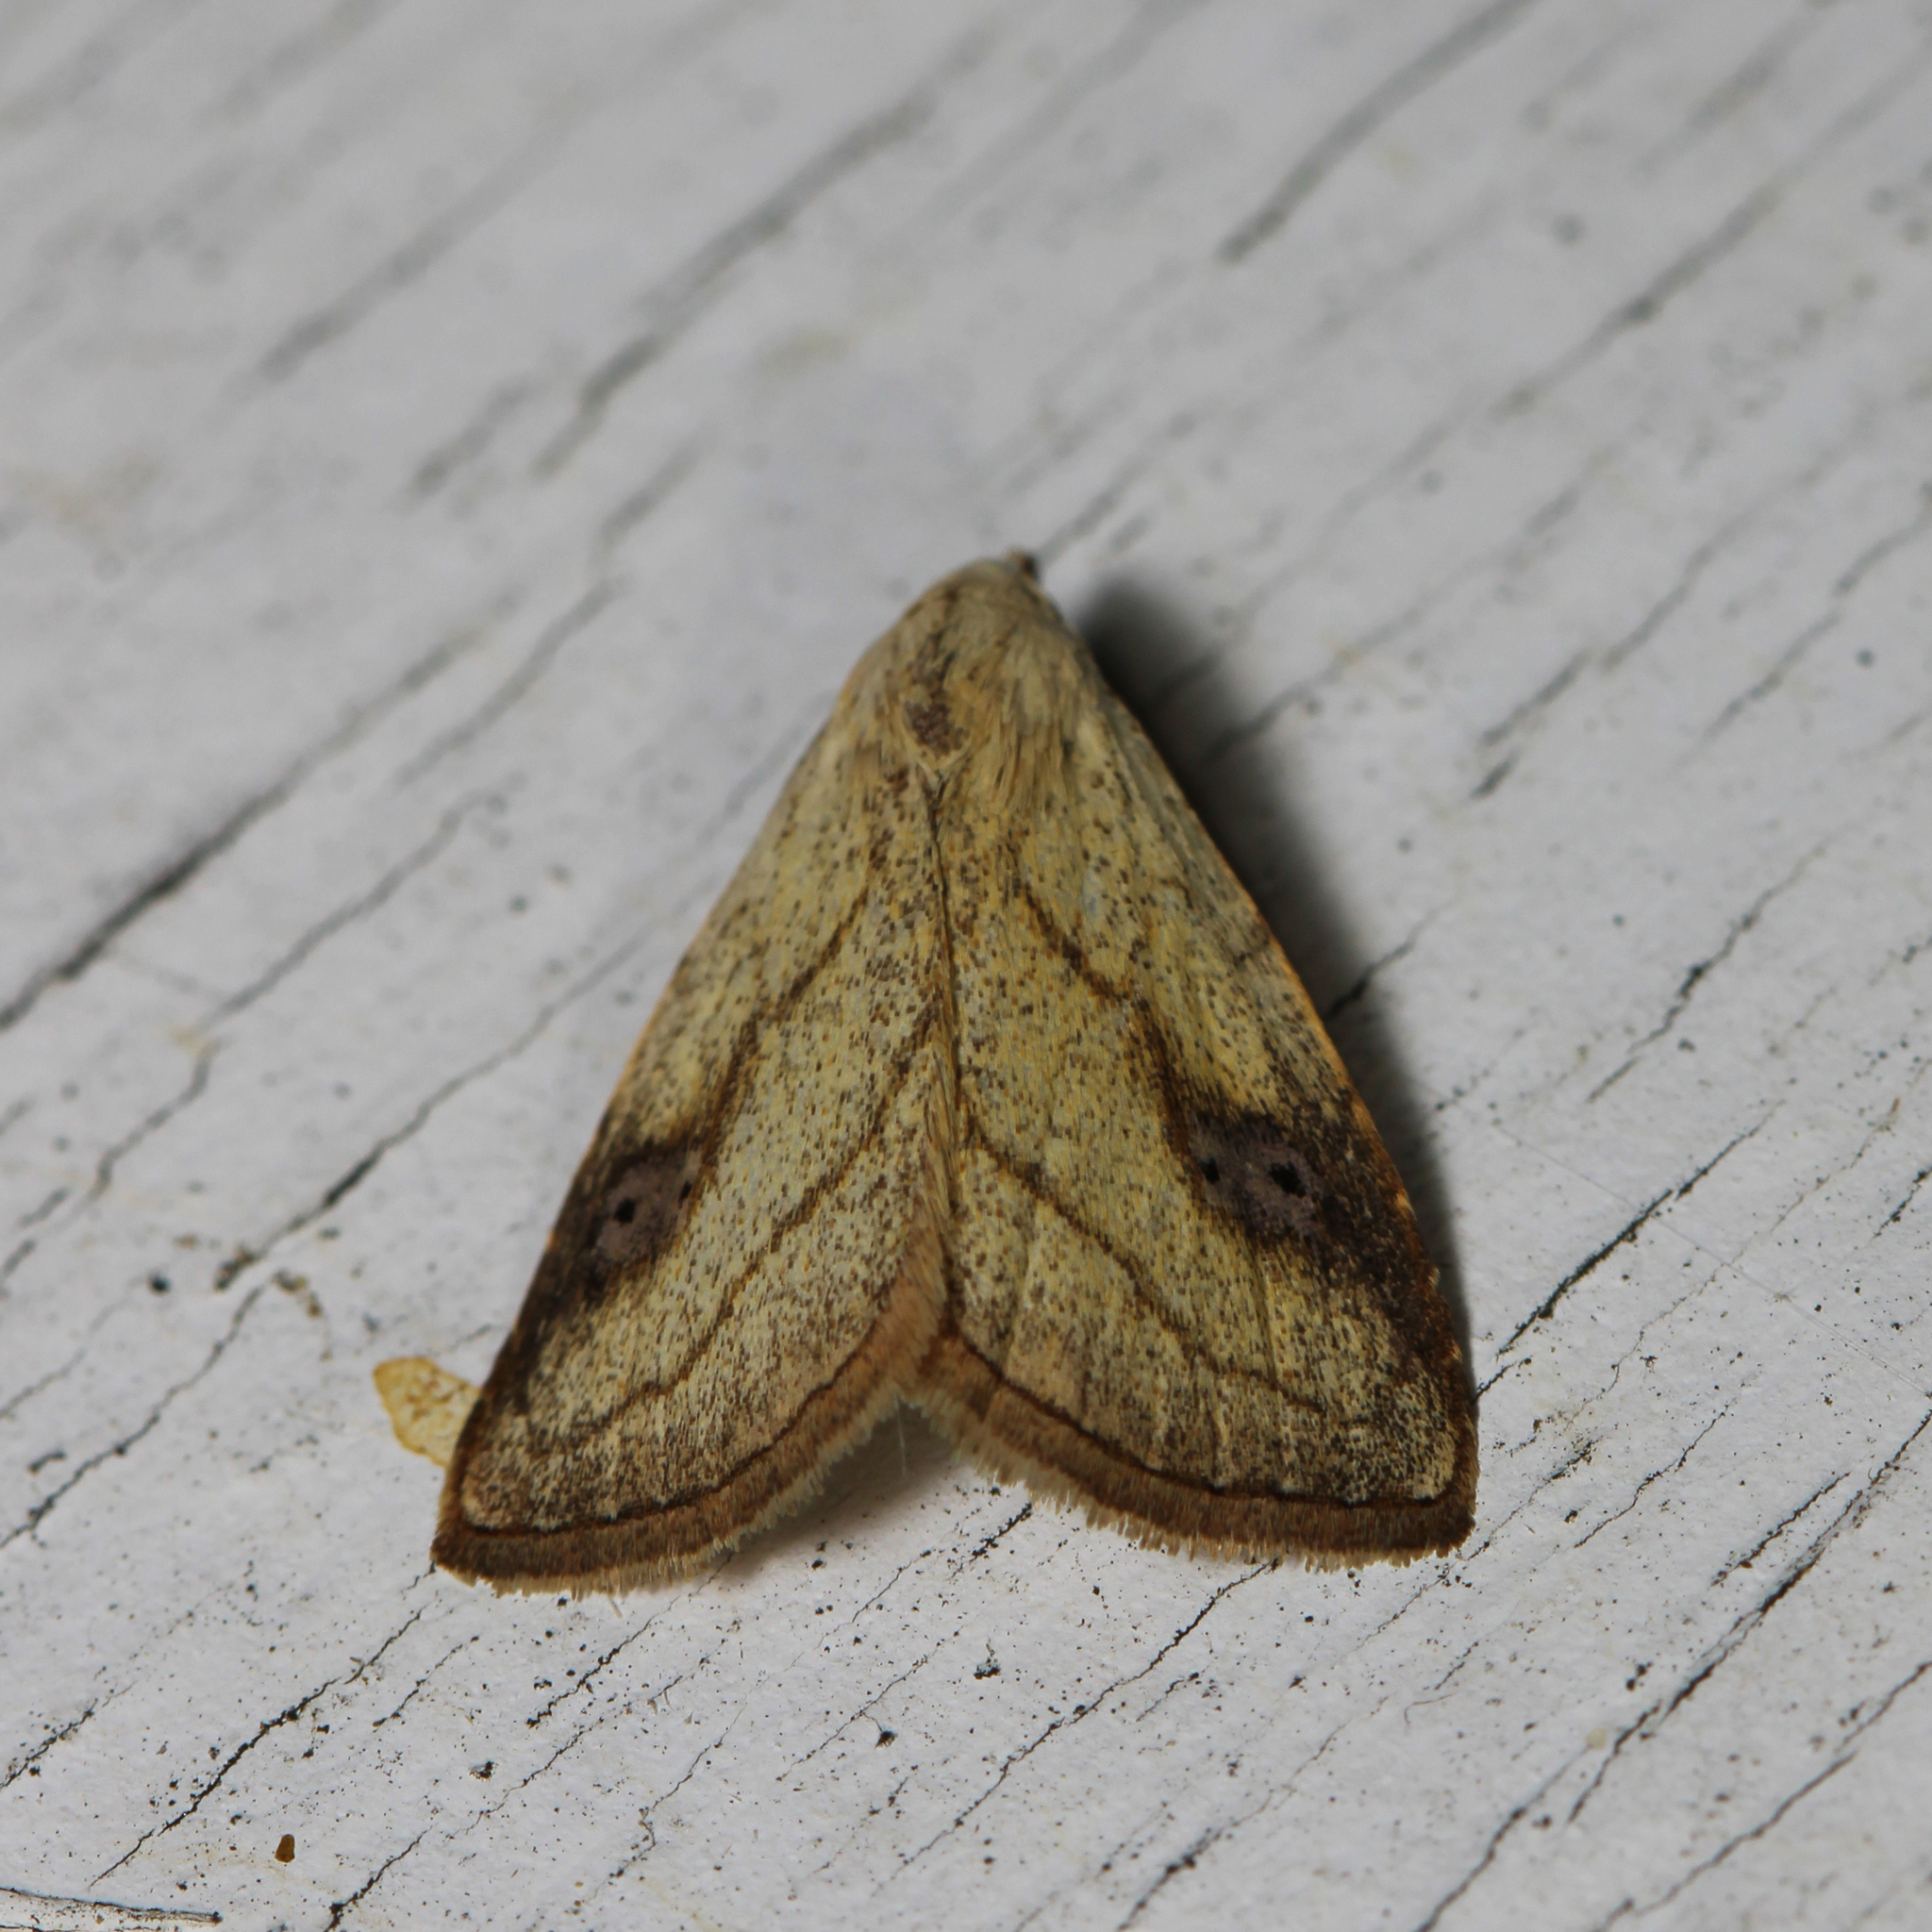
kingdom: Animalia
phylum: Arthropoda
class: Insecta
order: Lepidoptera
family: Erebidae
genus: Rivula
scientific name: Rivula propinqualis
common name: Spotted grass moth
